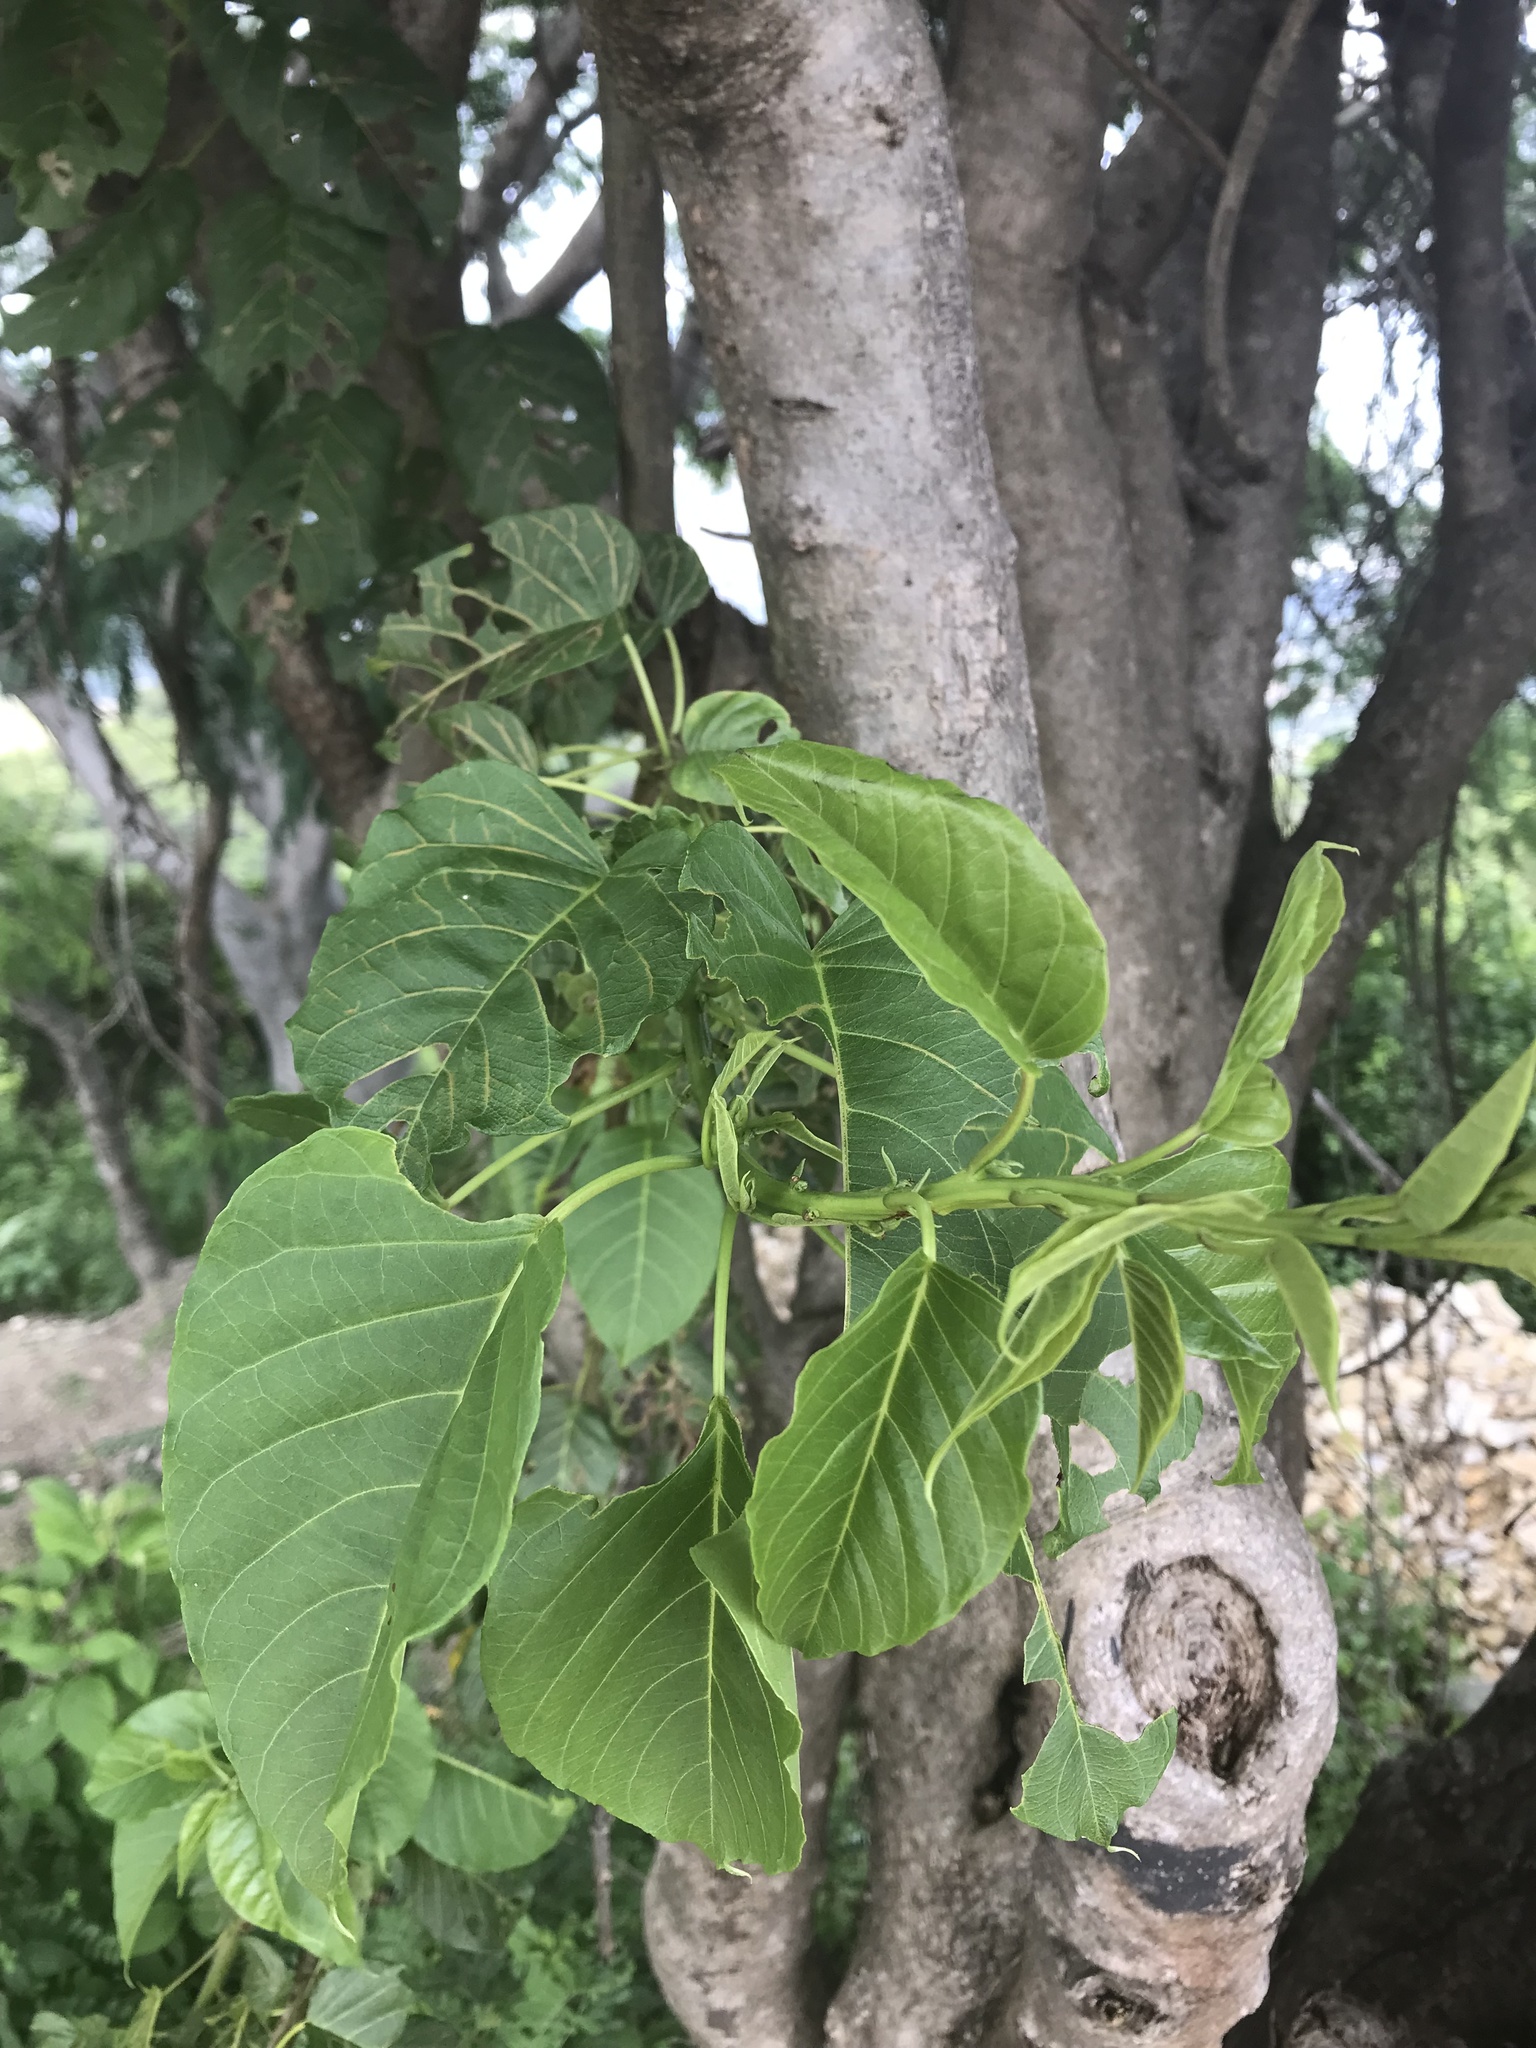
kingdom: Plantae
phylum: Tracheophyta
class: Magnoliopsida
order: Solanales
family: Convolvulaceae
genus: Ipomoea
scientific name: Ipomoea pauciflora
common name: Tree morningglory
